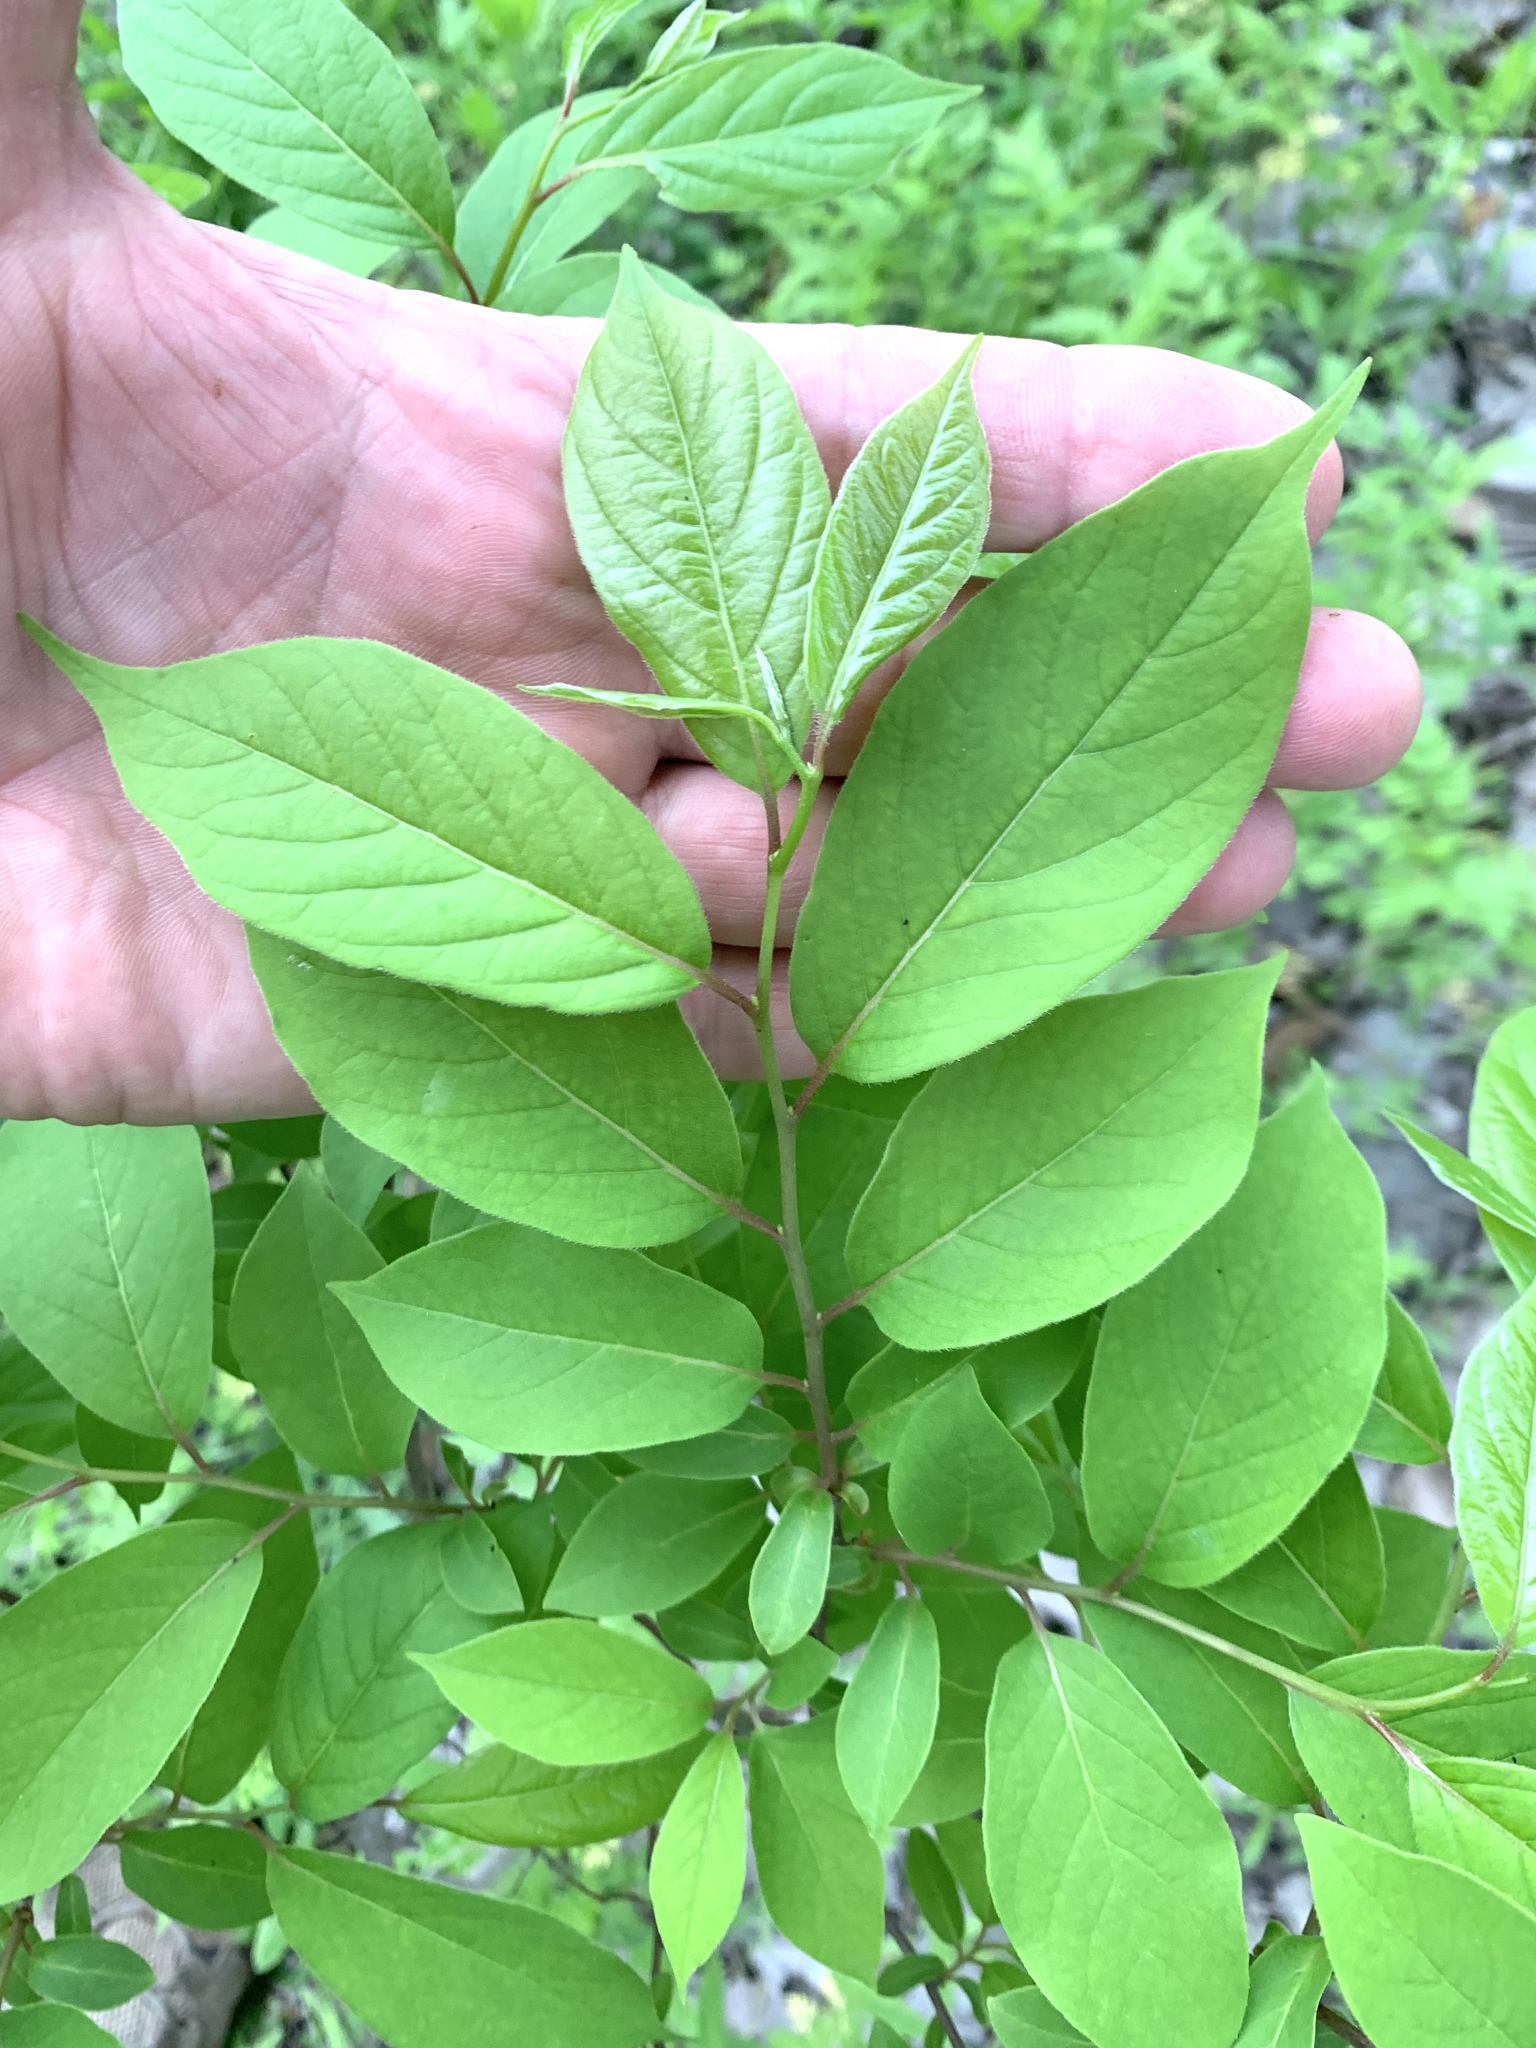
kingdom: Plantae
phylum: Tracheophyta
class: Magnoliopsida
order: Ericales
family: Ebenaceae
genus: Diospyros
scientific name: Diospyros virginiana
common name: Persimmon
